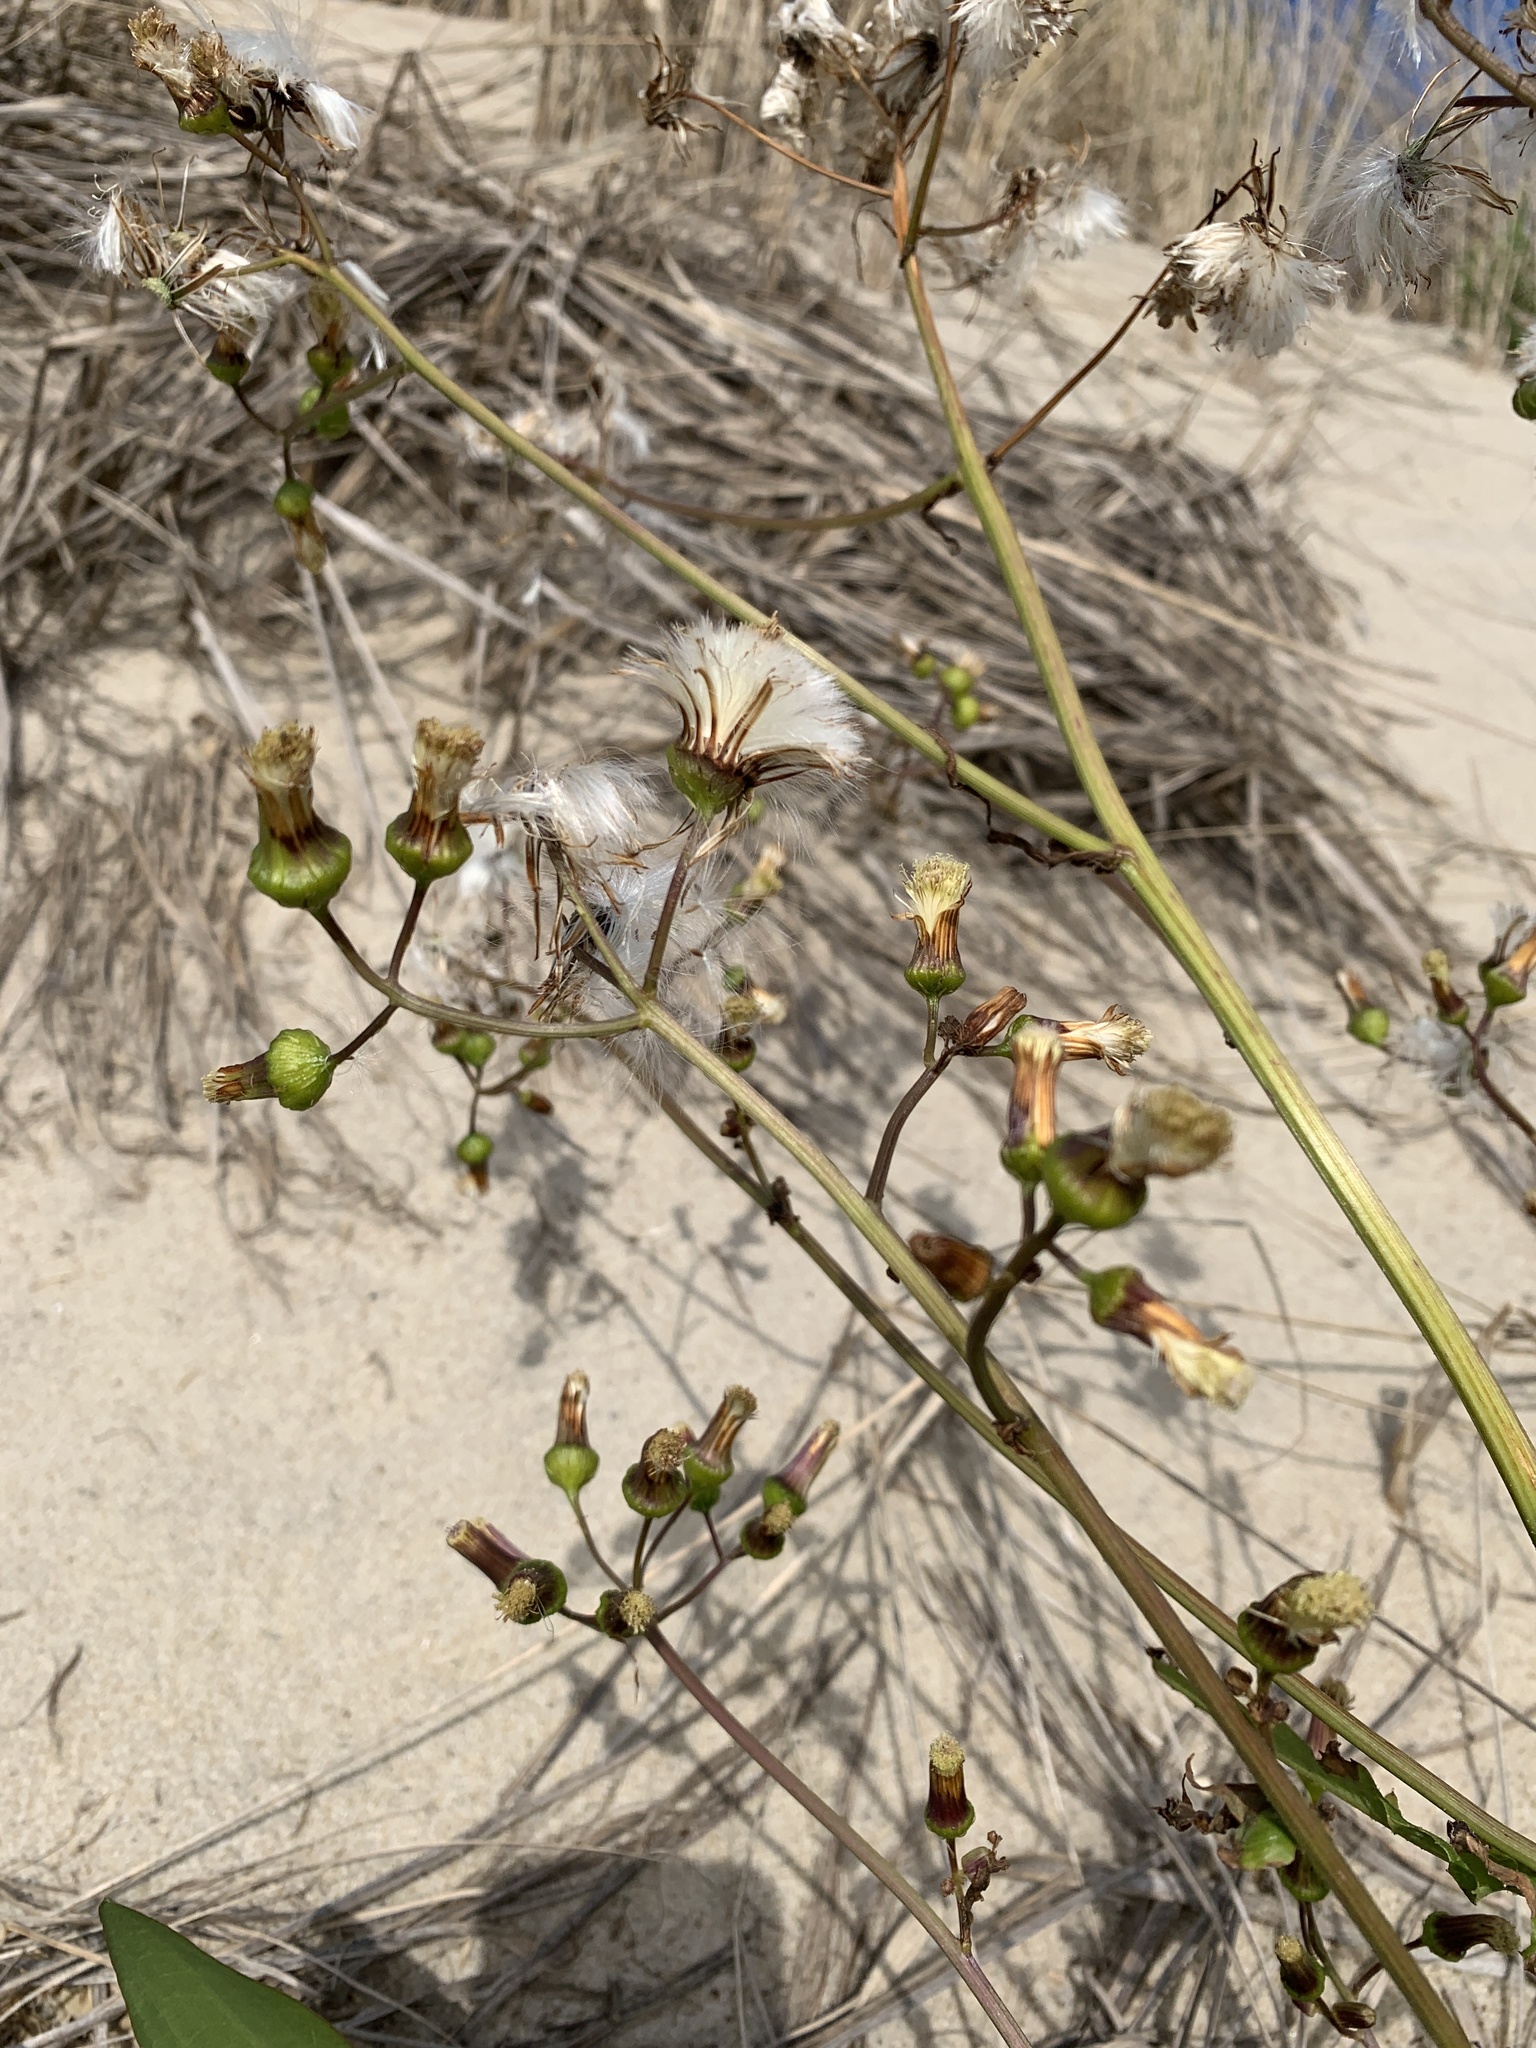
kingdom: Plantae
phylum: Tracheophyta
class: Magnoliopsida
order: Asterales
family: Asteraceae
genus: Erechtites
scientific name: Erechtites hieraciifolius
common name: American burnweed
